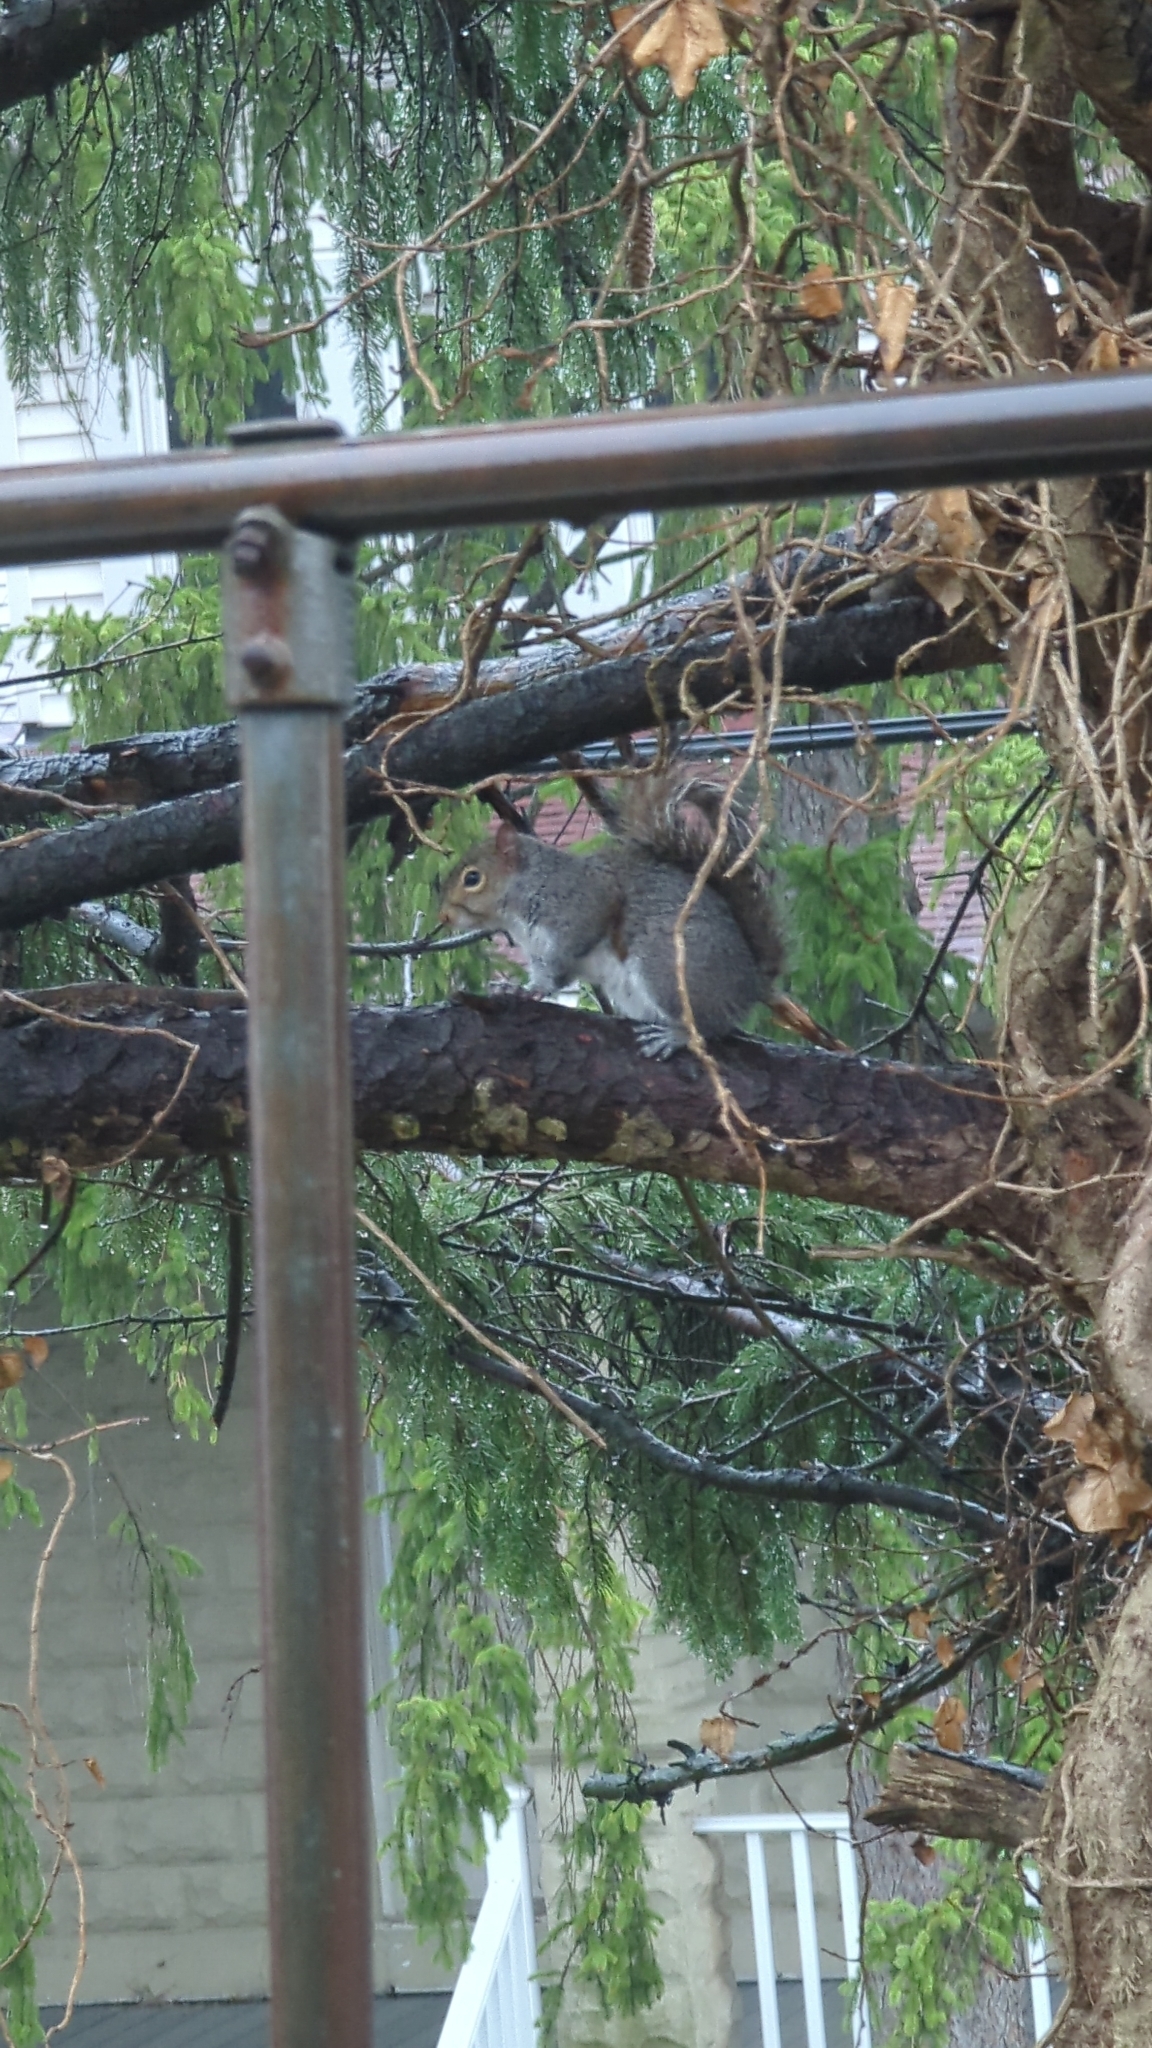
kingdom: Animalia
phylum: Chordata
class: Mammalia
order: Rodentia
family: Sciuridae
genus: Sciurus
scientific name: Sciurus carolinensis
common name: Eastern gray squirrel
